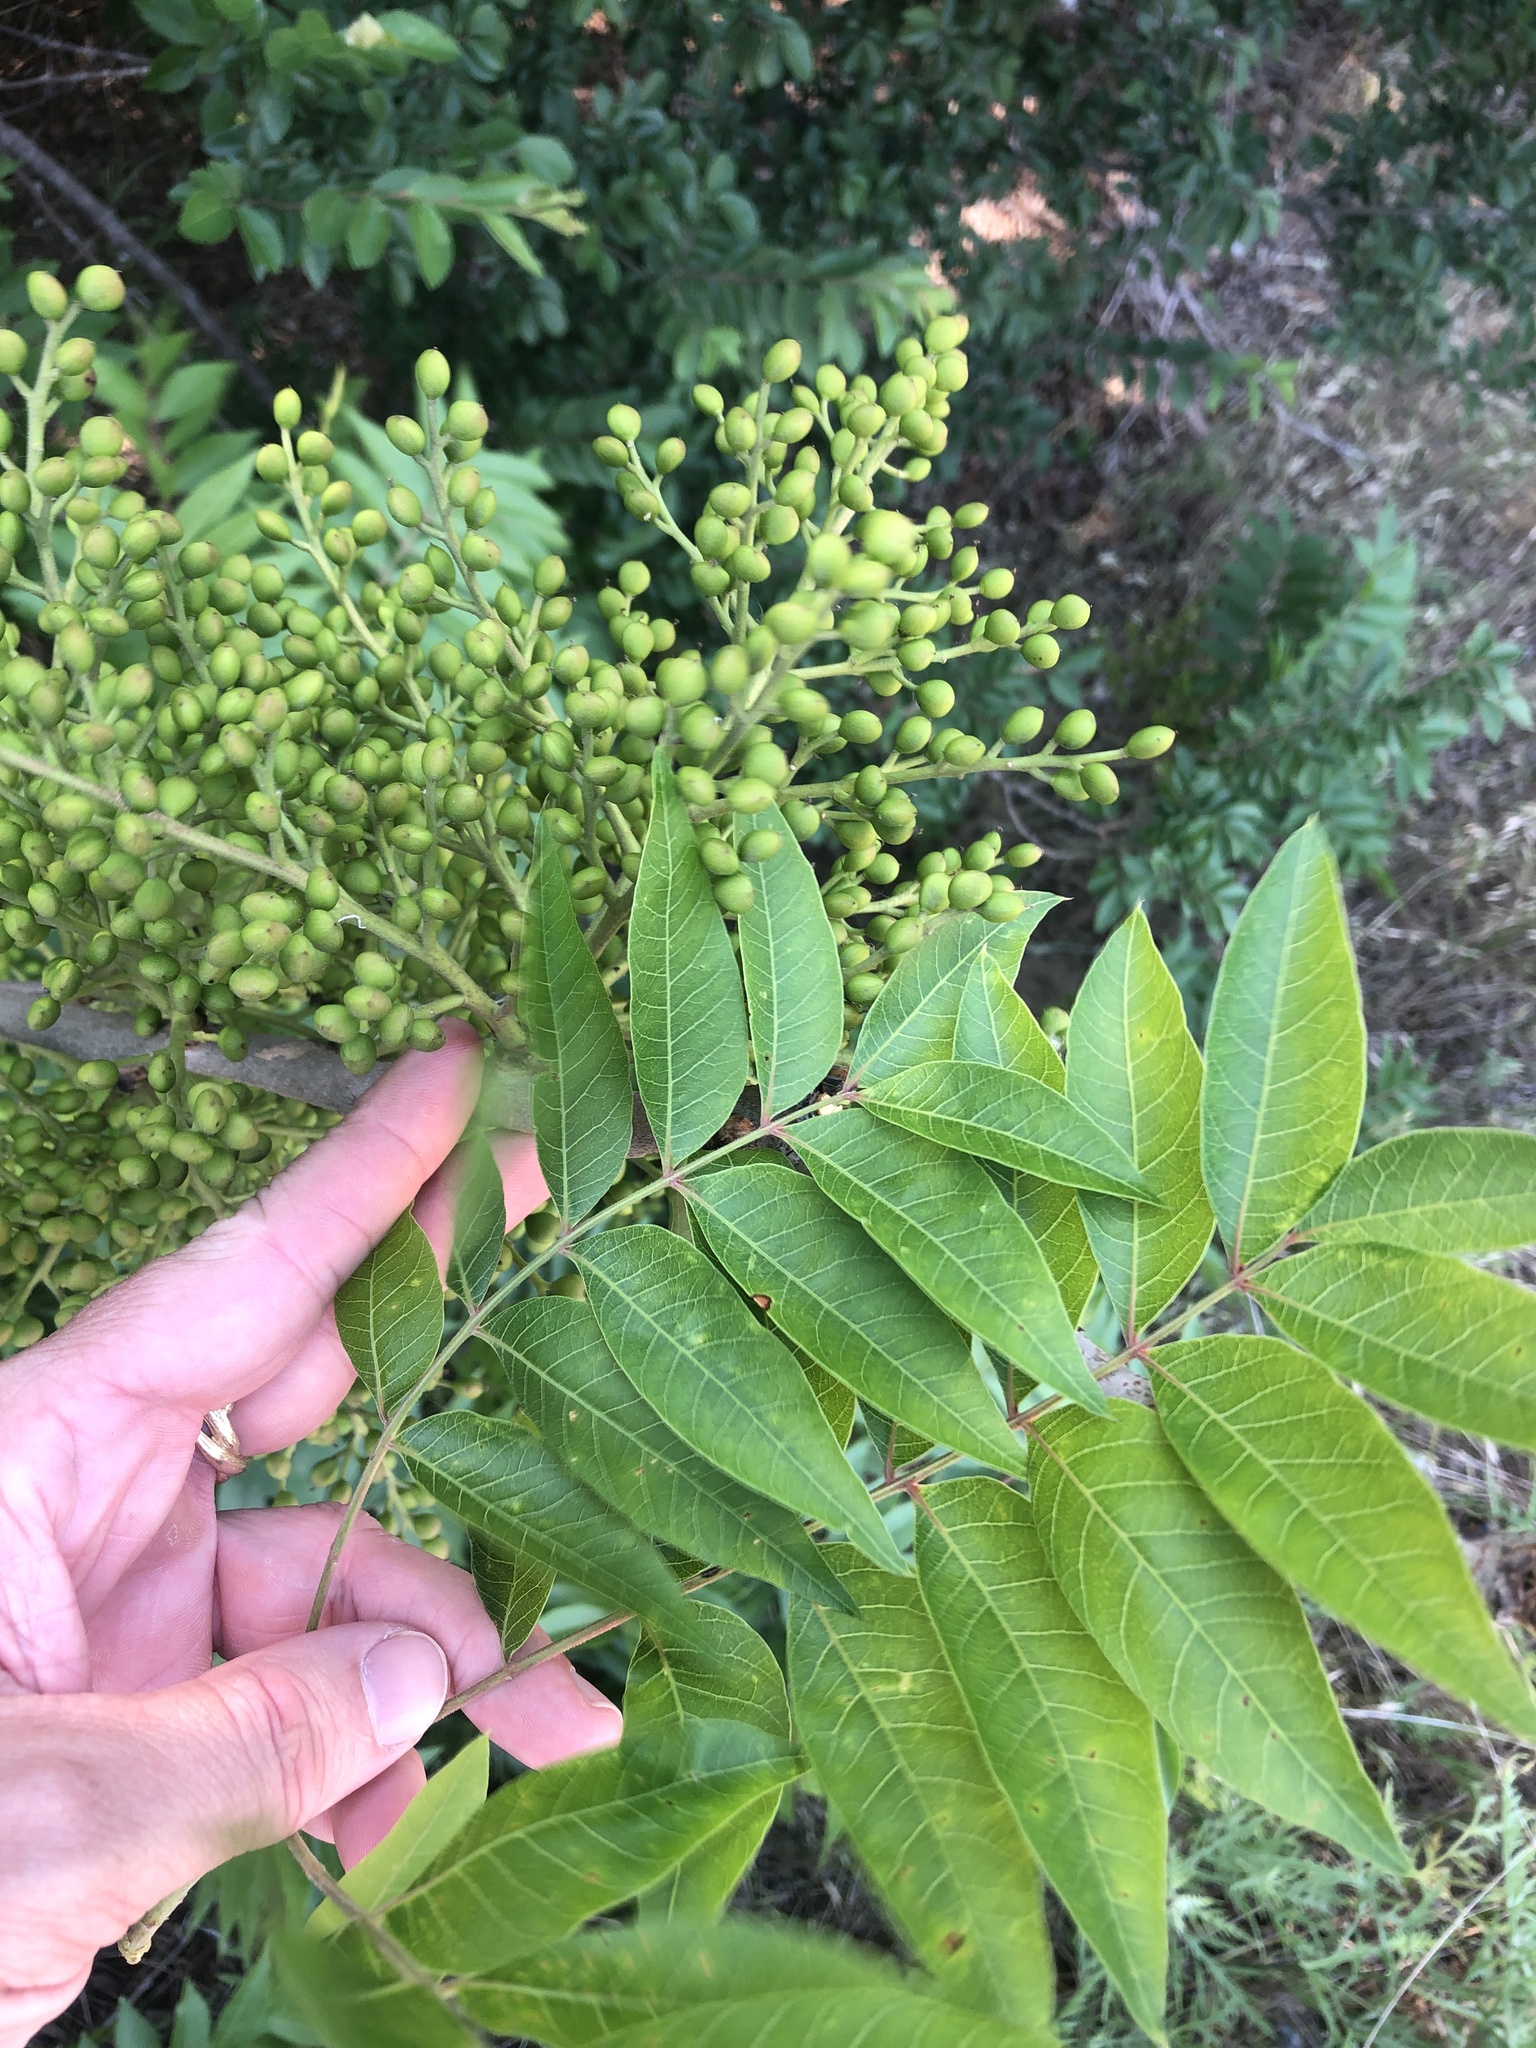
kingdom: Plantae
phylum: Tracheophyta
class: Magnoliopsida
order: Sapindales
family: Anacardiaceae
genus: Pistacia
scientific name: Pistacia chinensis
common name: Chinese pistache
